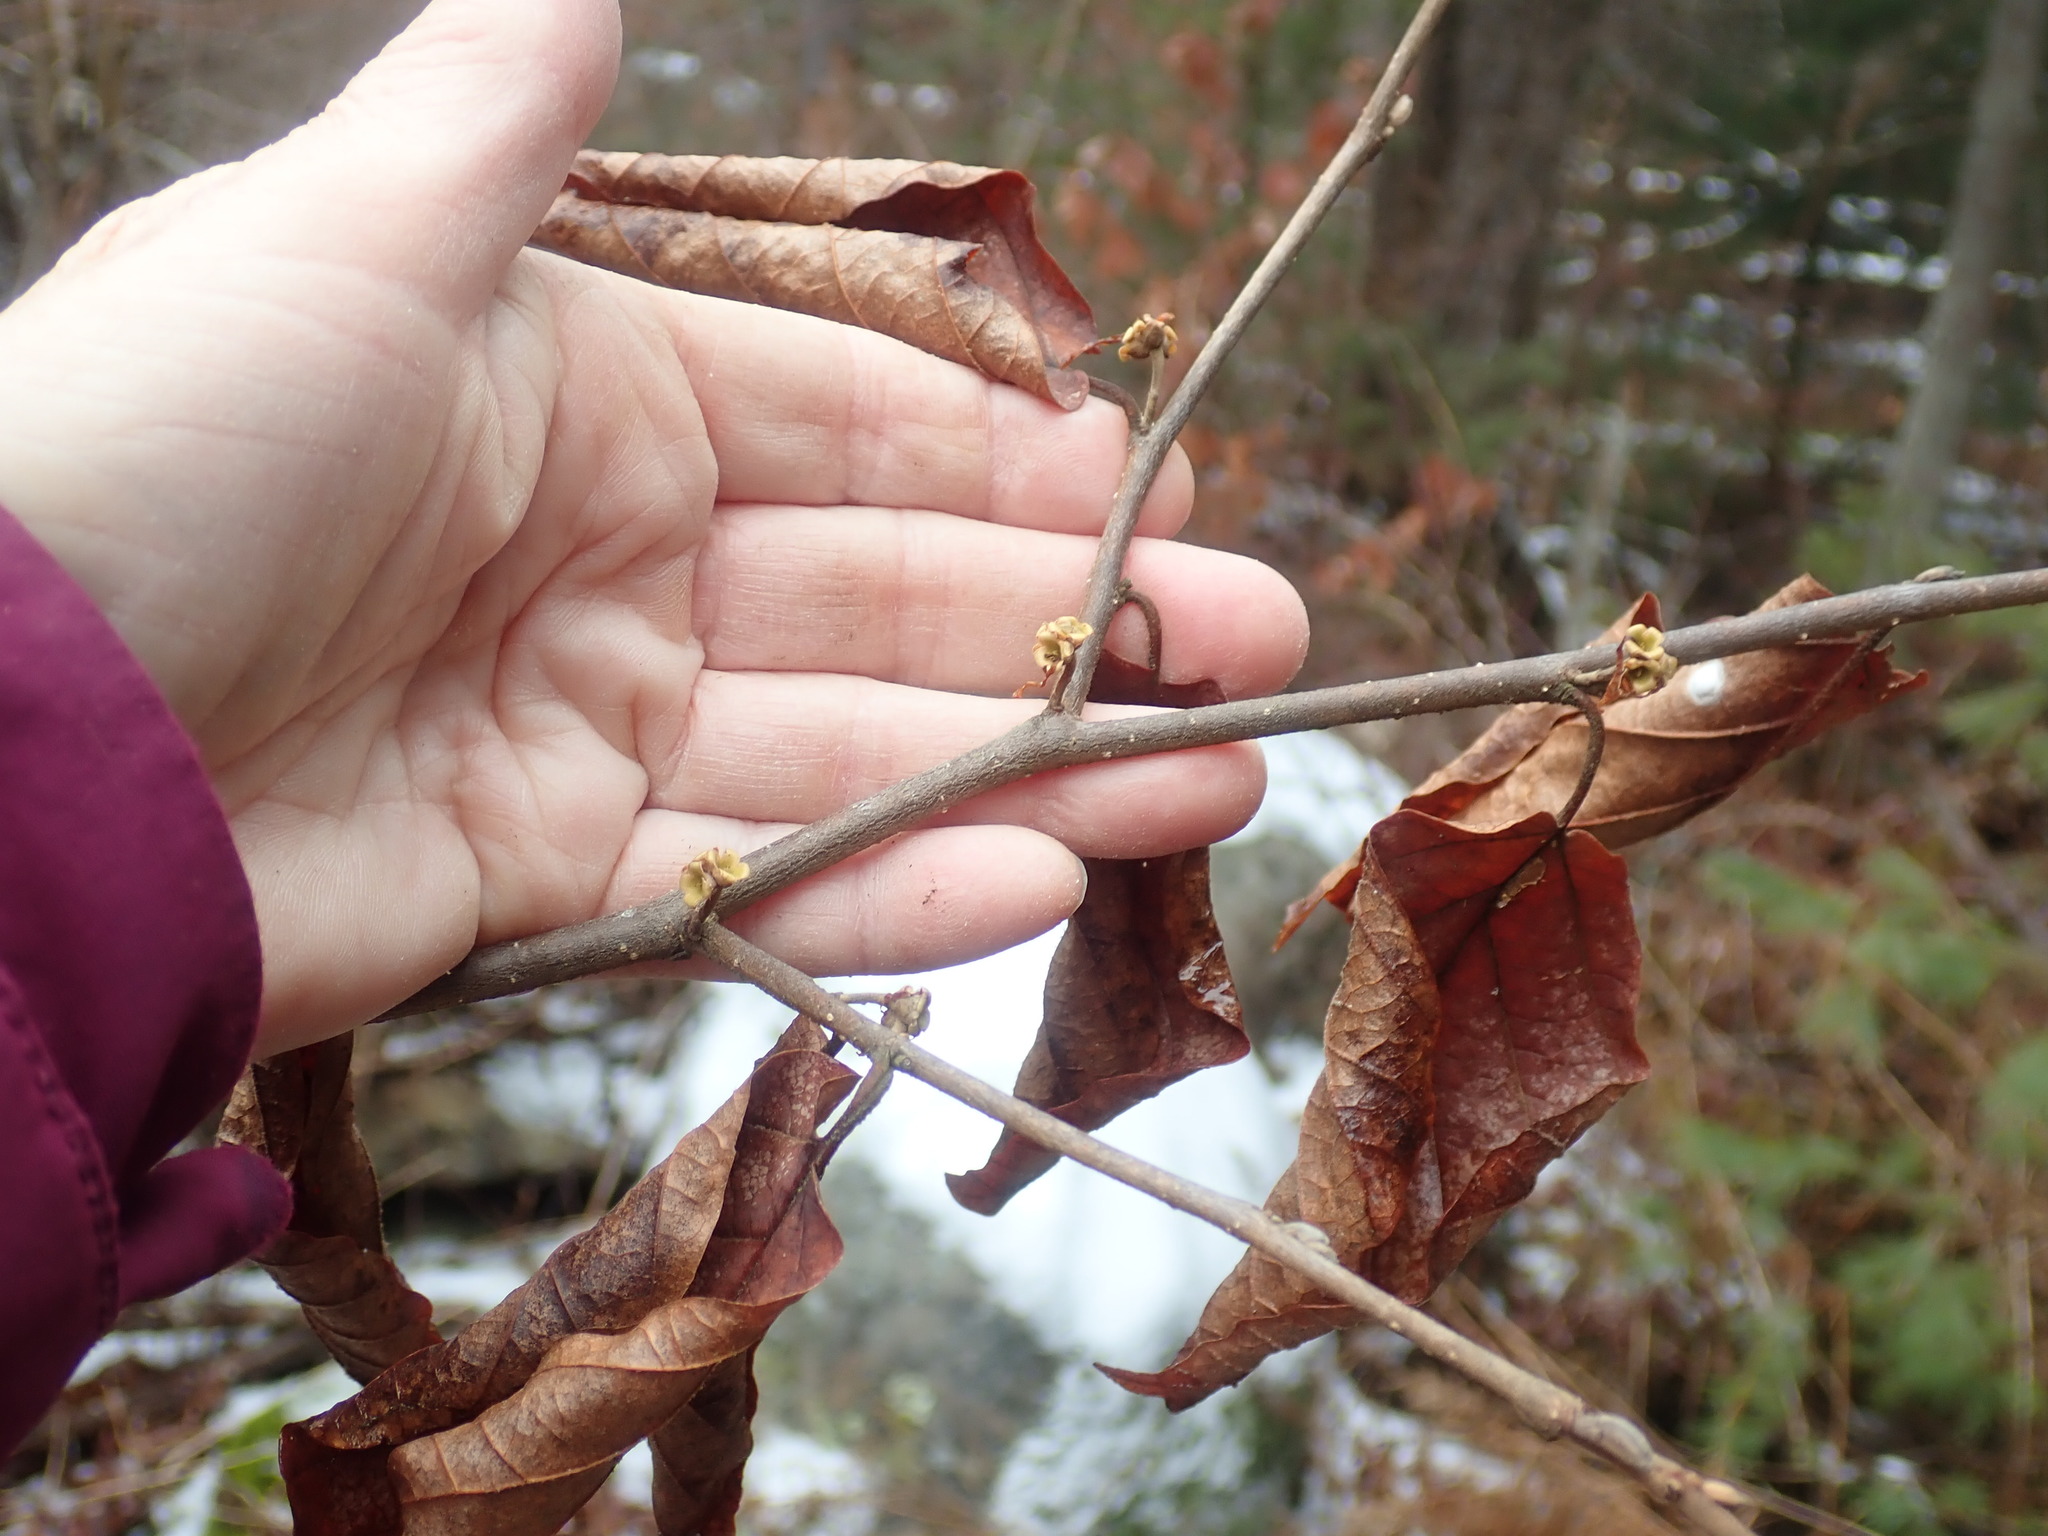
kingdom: Plantae
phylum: Tracheophyta
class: Magnoliopsida
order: Saxifragales
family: Hamamelidaceae
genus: Hamamelis
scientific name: Hamamelis virginiana
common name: Witch-hazel
